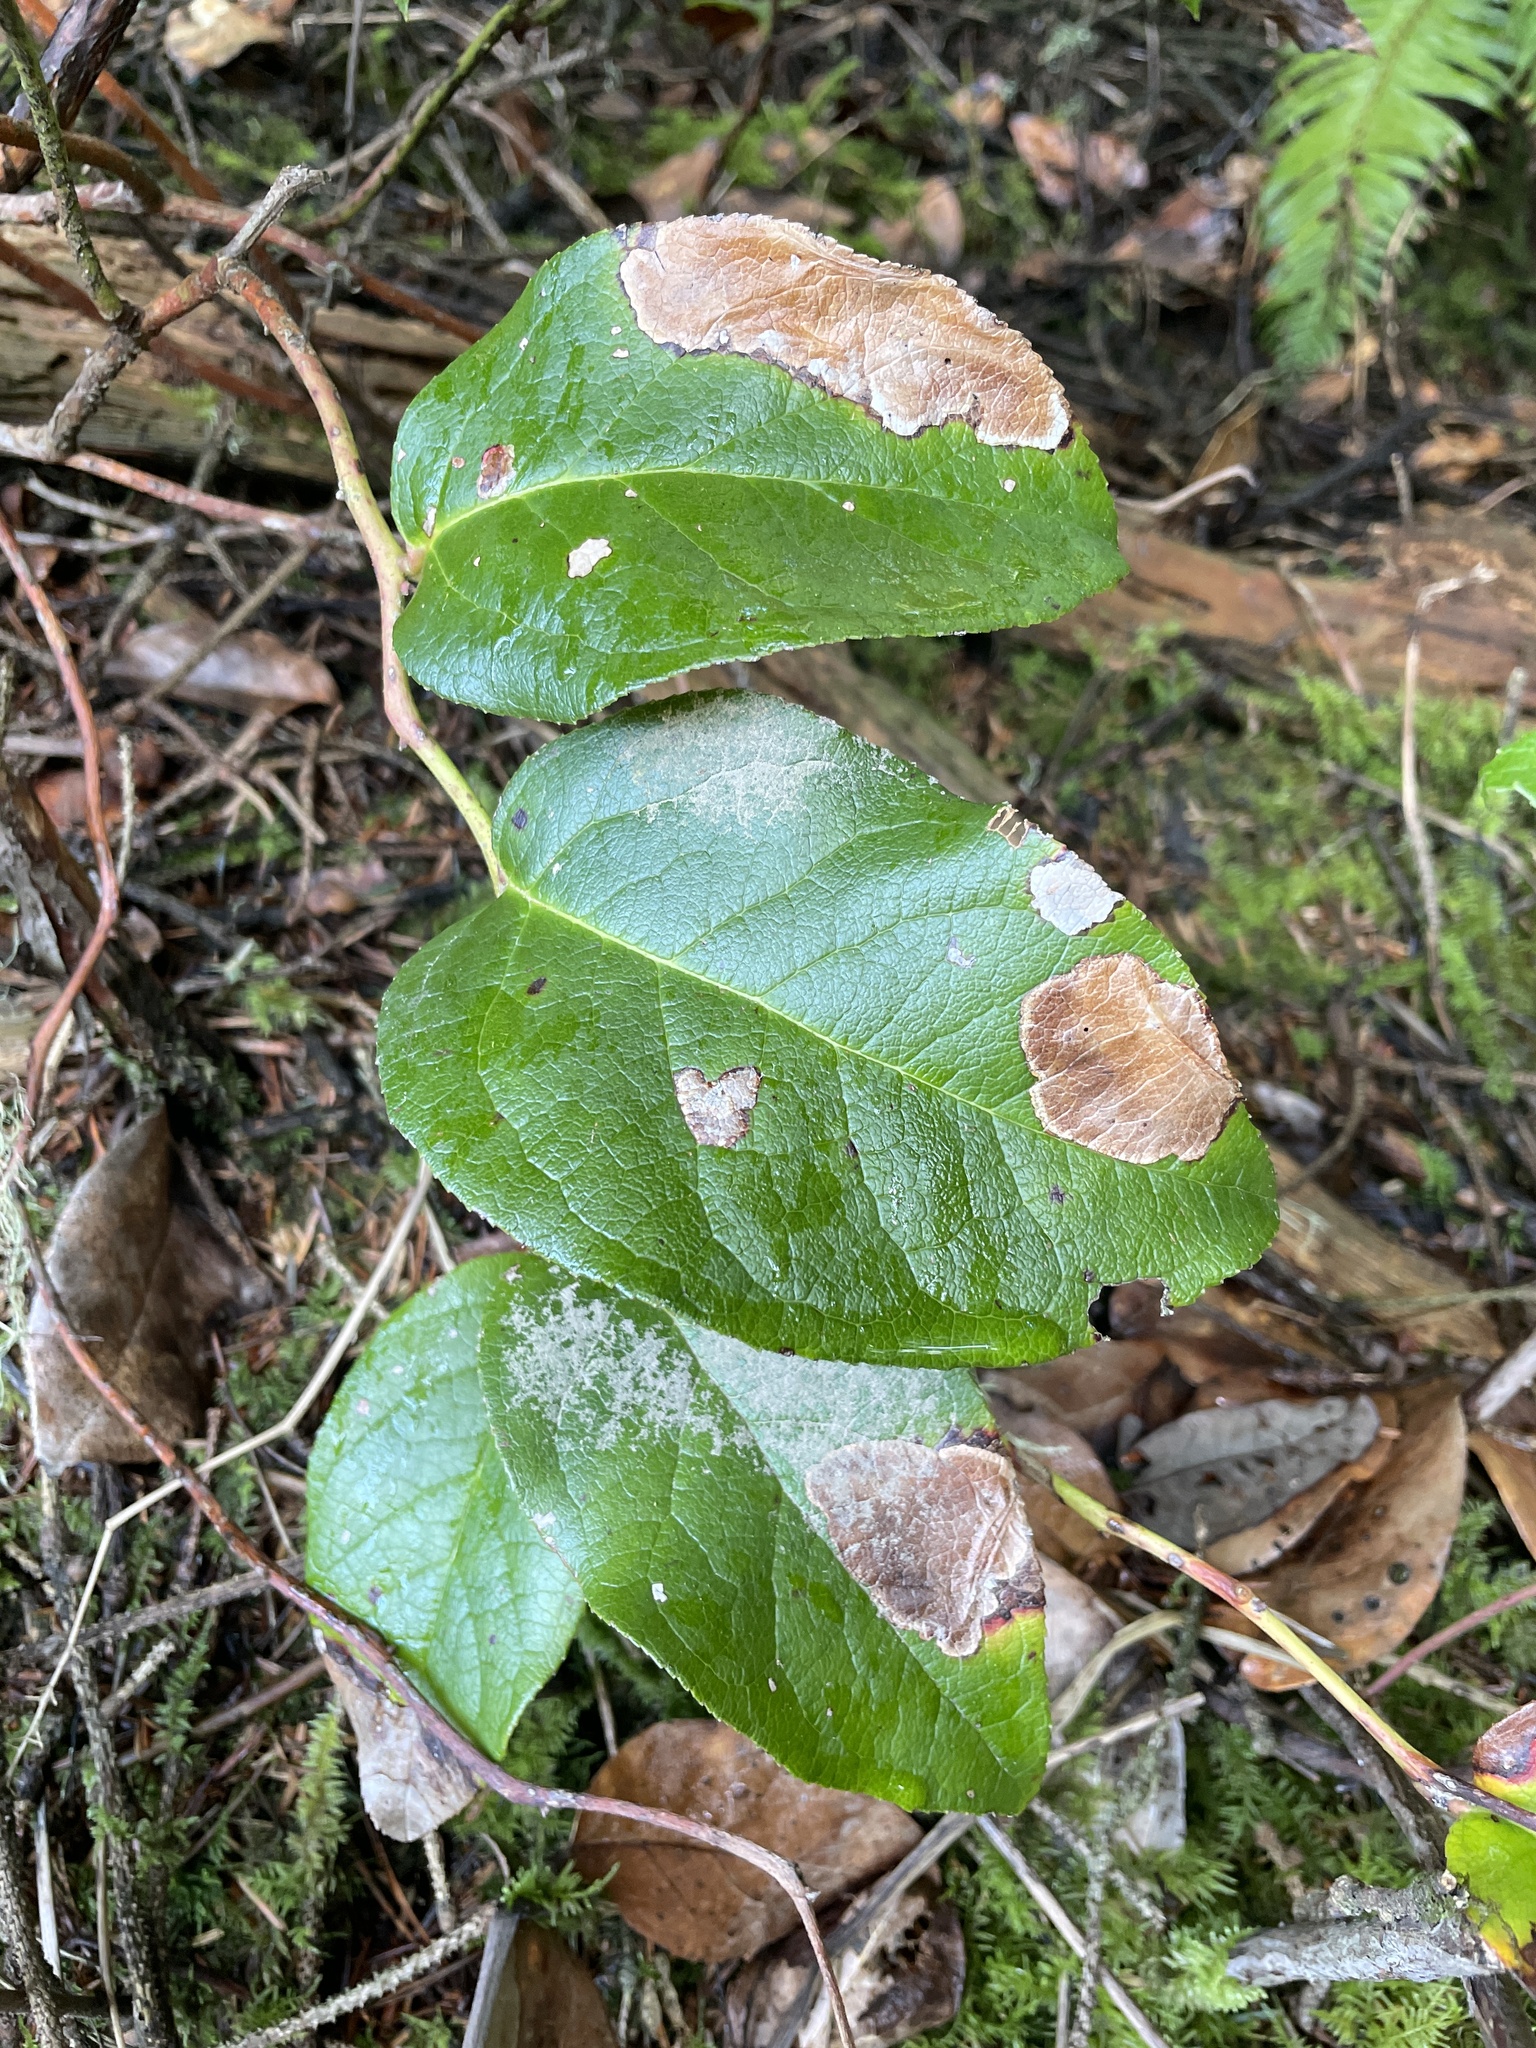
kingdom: Animalia
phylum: Arthropoda
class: Insecta
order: Lepidoptera
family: Gracillariidae
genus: Cameraria
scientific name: Cameraria gaultheriella
